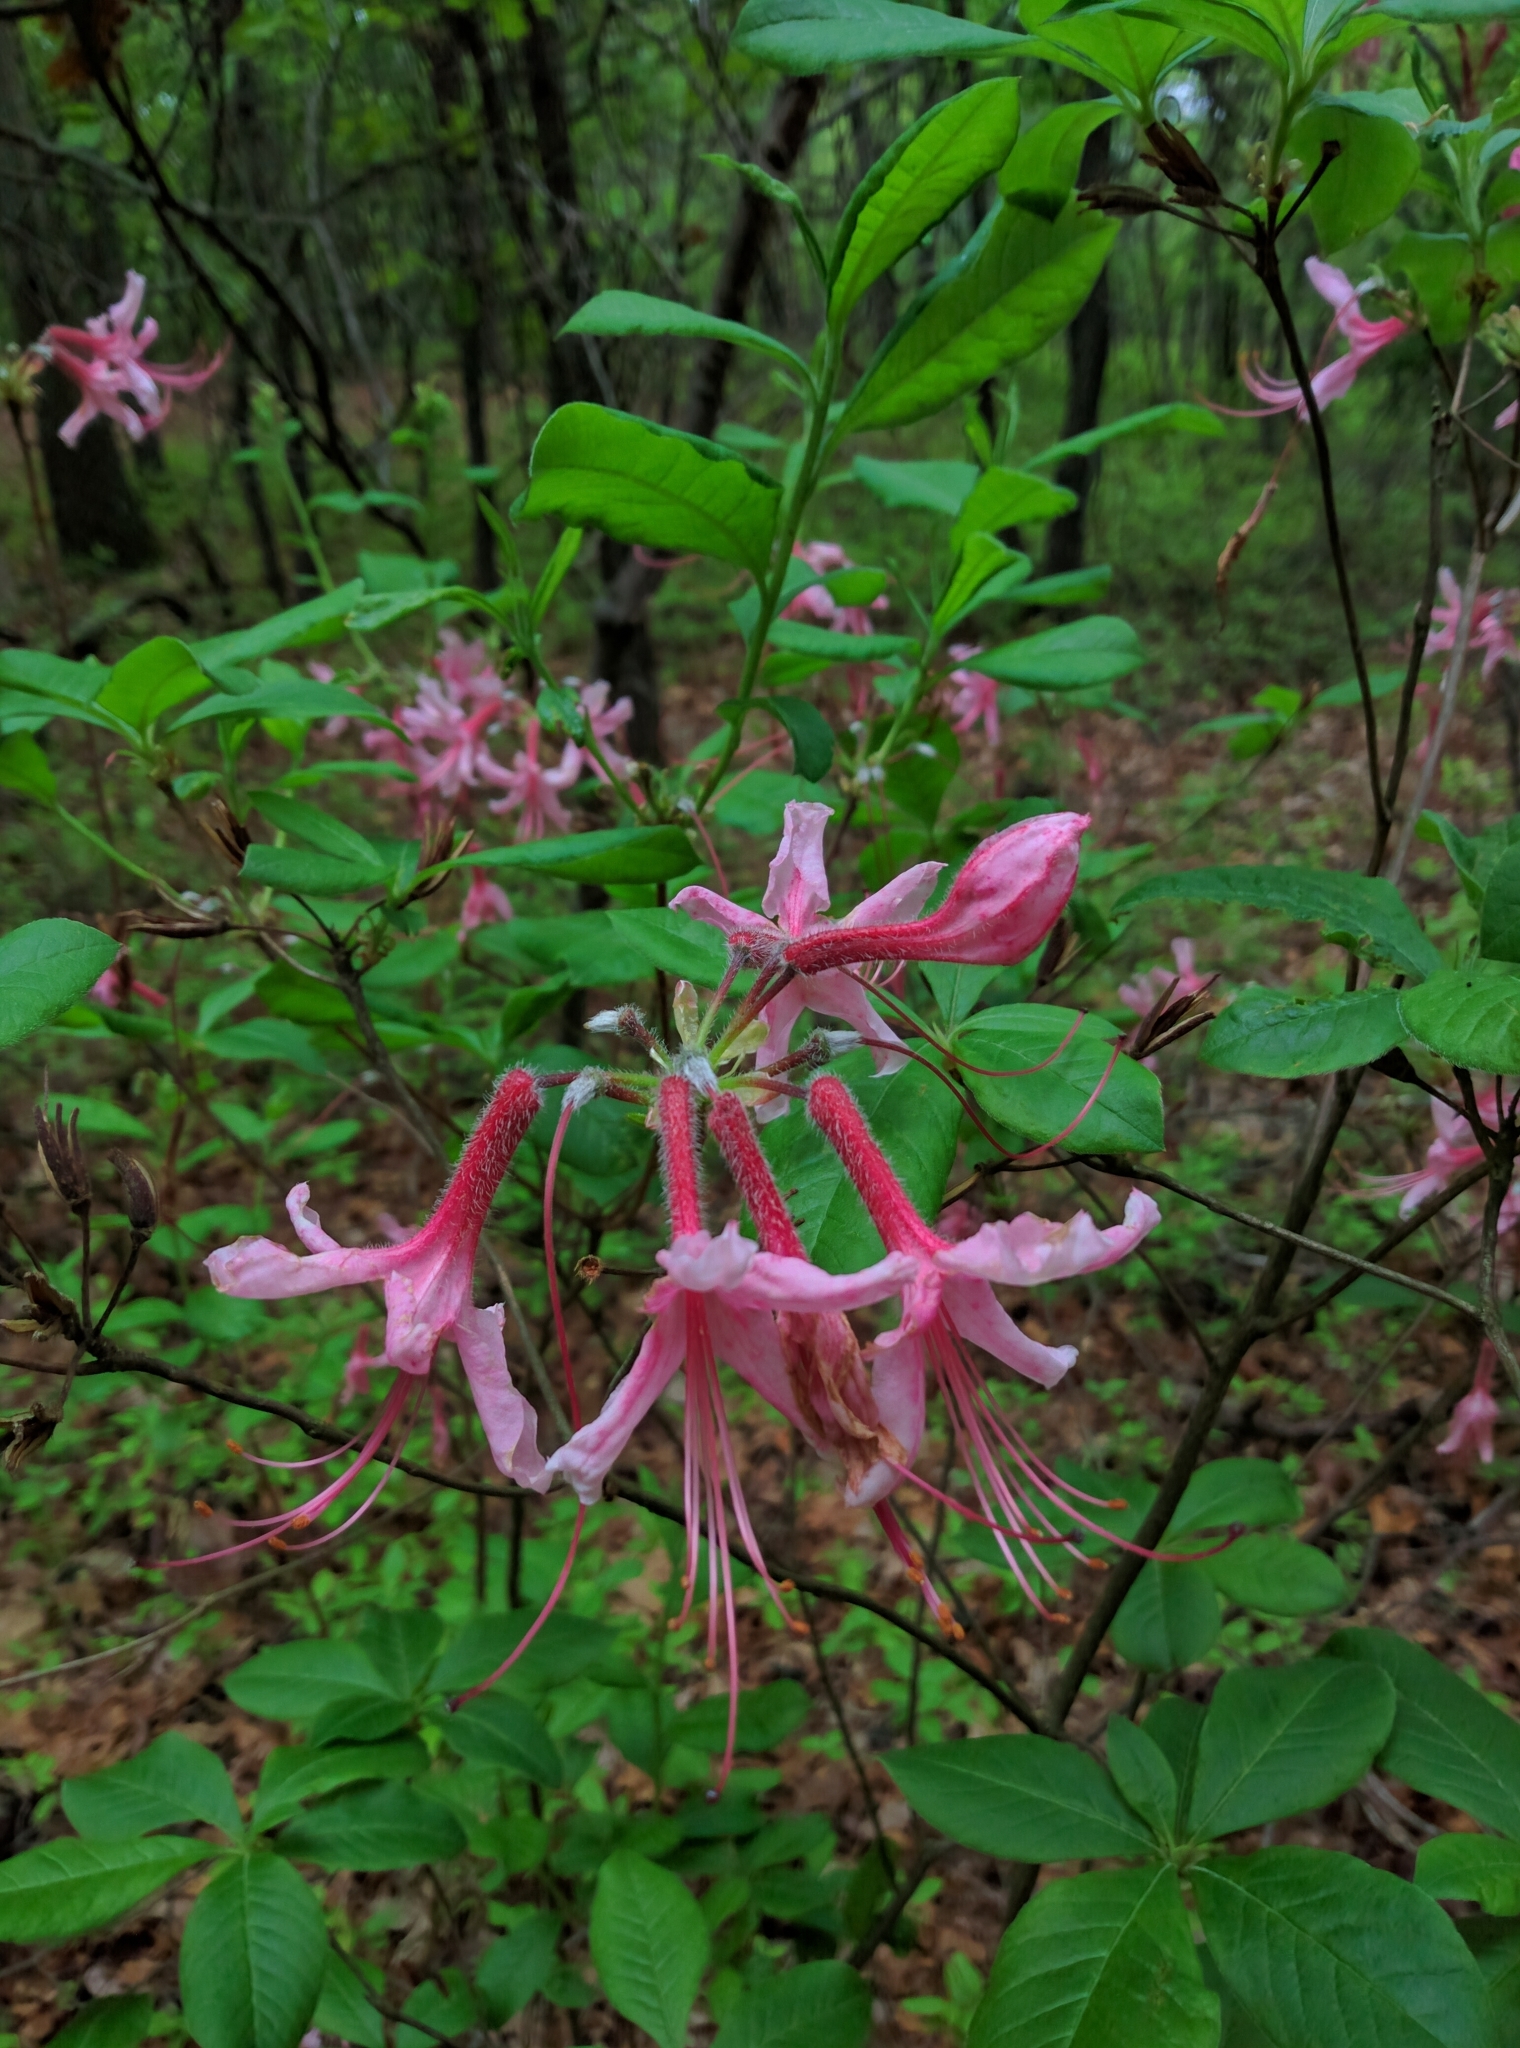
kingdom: Plantae
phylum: Tracheophyta
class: Magnoliopsida
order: Ericales
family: Ericaceae
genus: Rhododendron
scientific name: Rhododendron periclymenoides
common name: Election-pink
